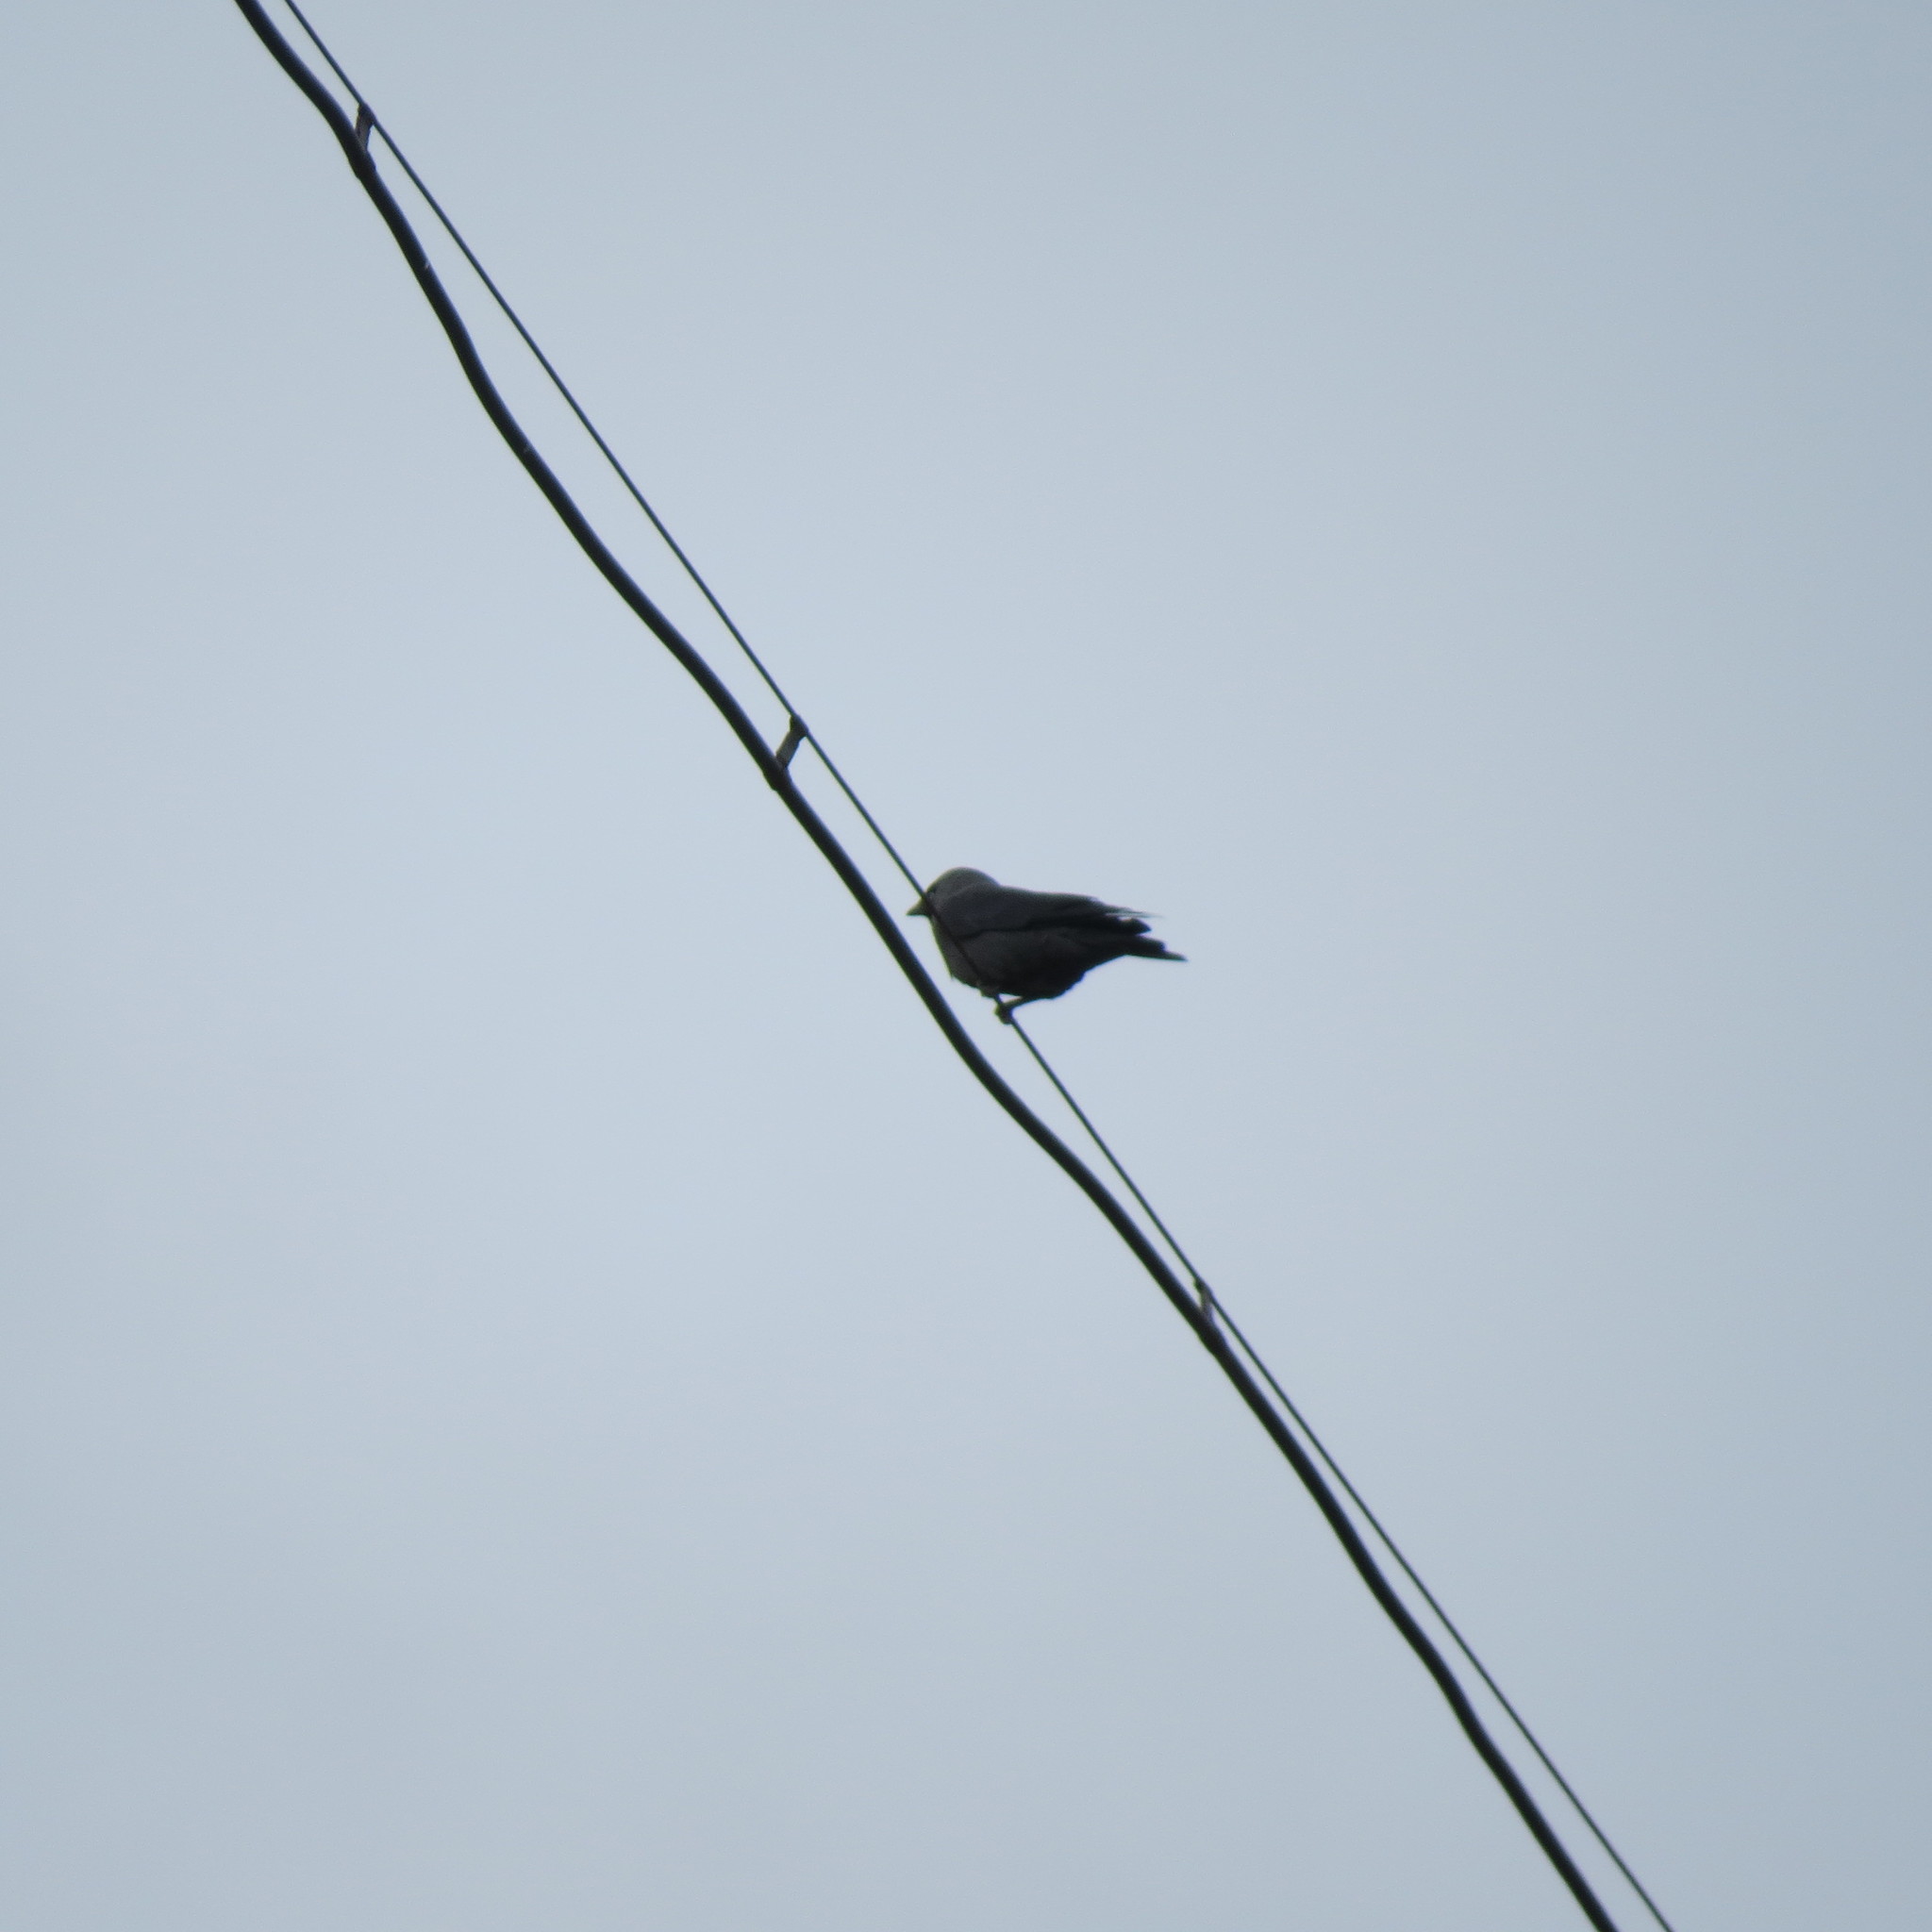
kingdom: Animalia
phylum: Chordata
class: Aves
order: Passeriformes
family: Corvidae
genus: Coloeus
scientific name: Coloeus monedula
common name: Western jackdaw
